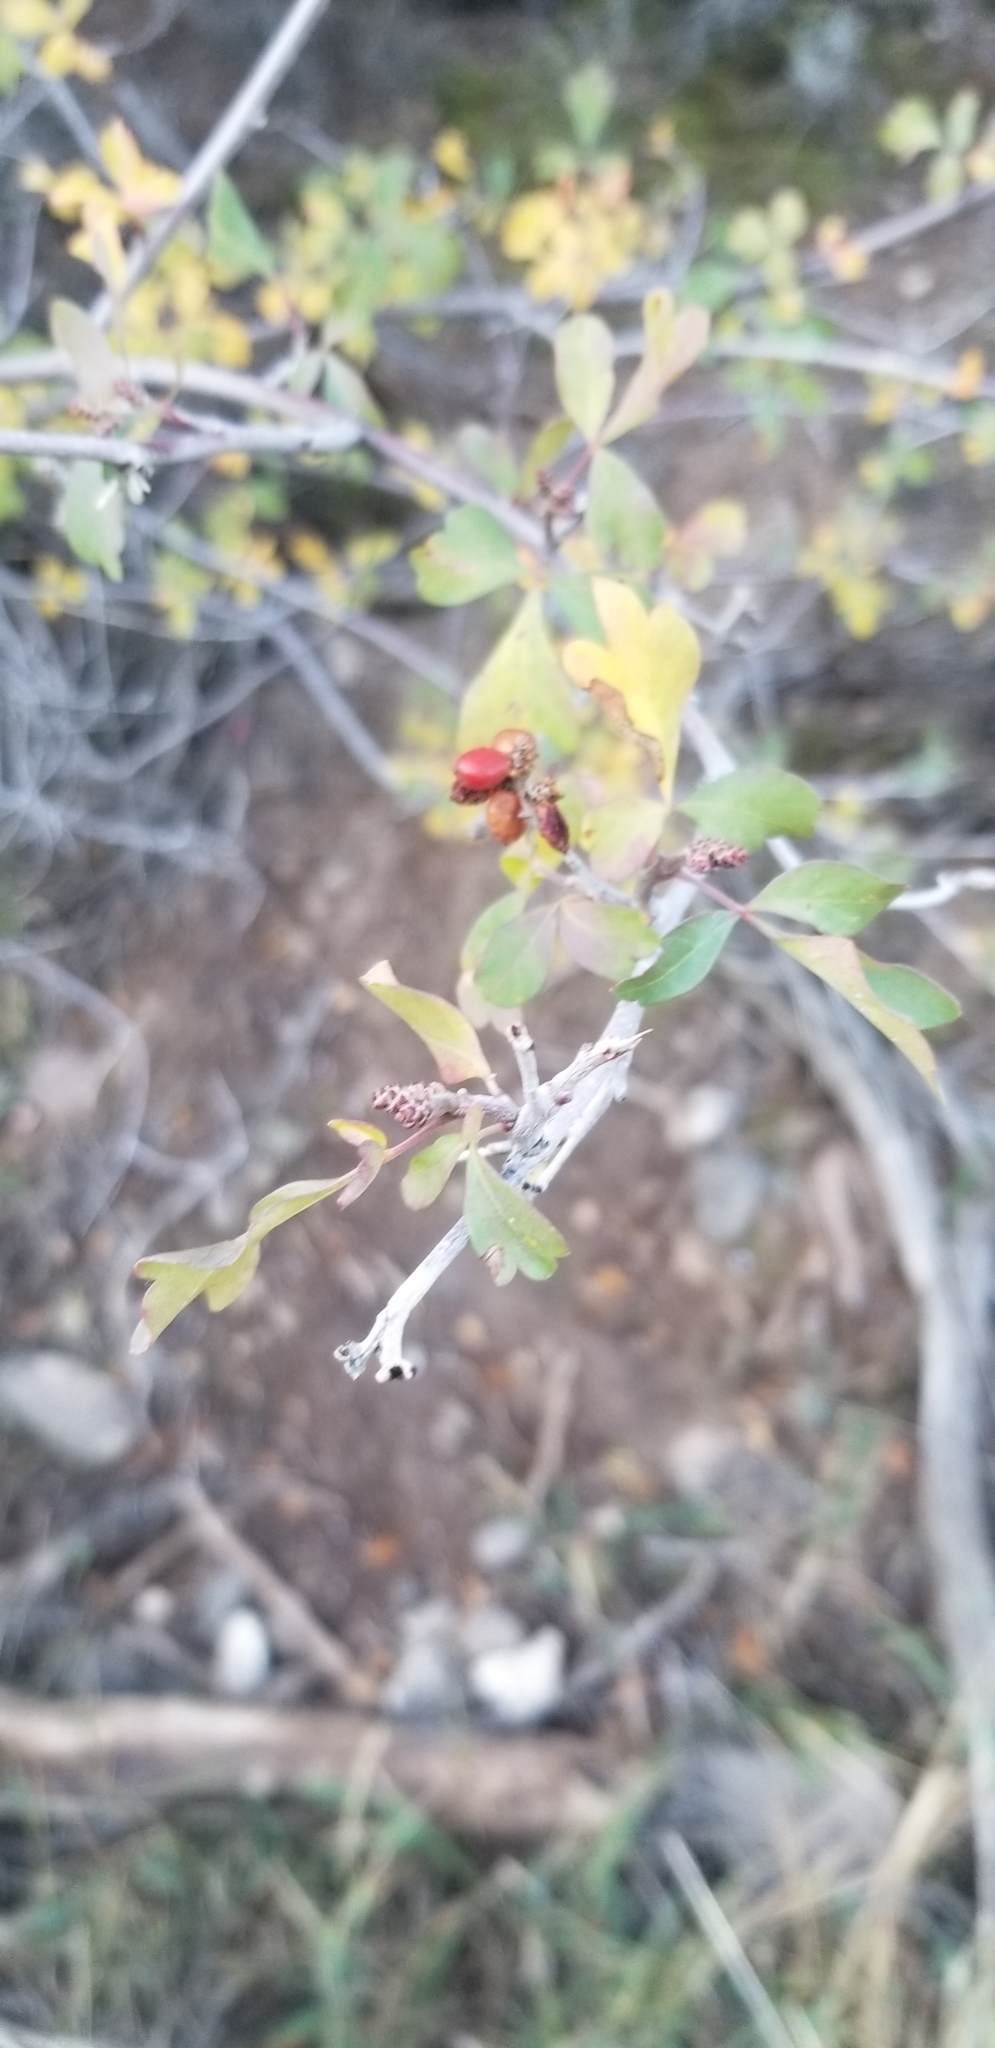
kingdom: Plantae
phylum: Tracheophyta
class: Magnoliopsida
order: Sapindales
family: Anacardiaceae
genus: Rhus
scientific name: Rhus trilobata
